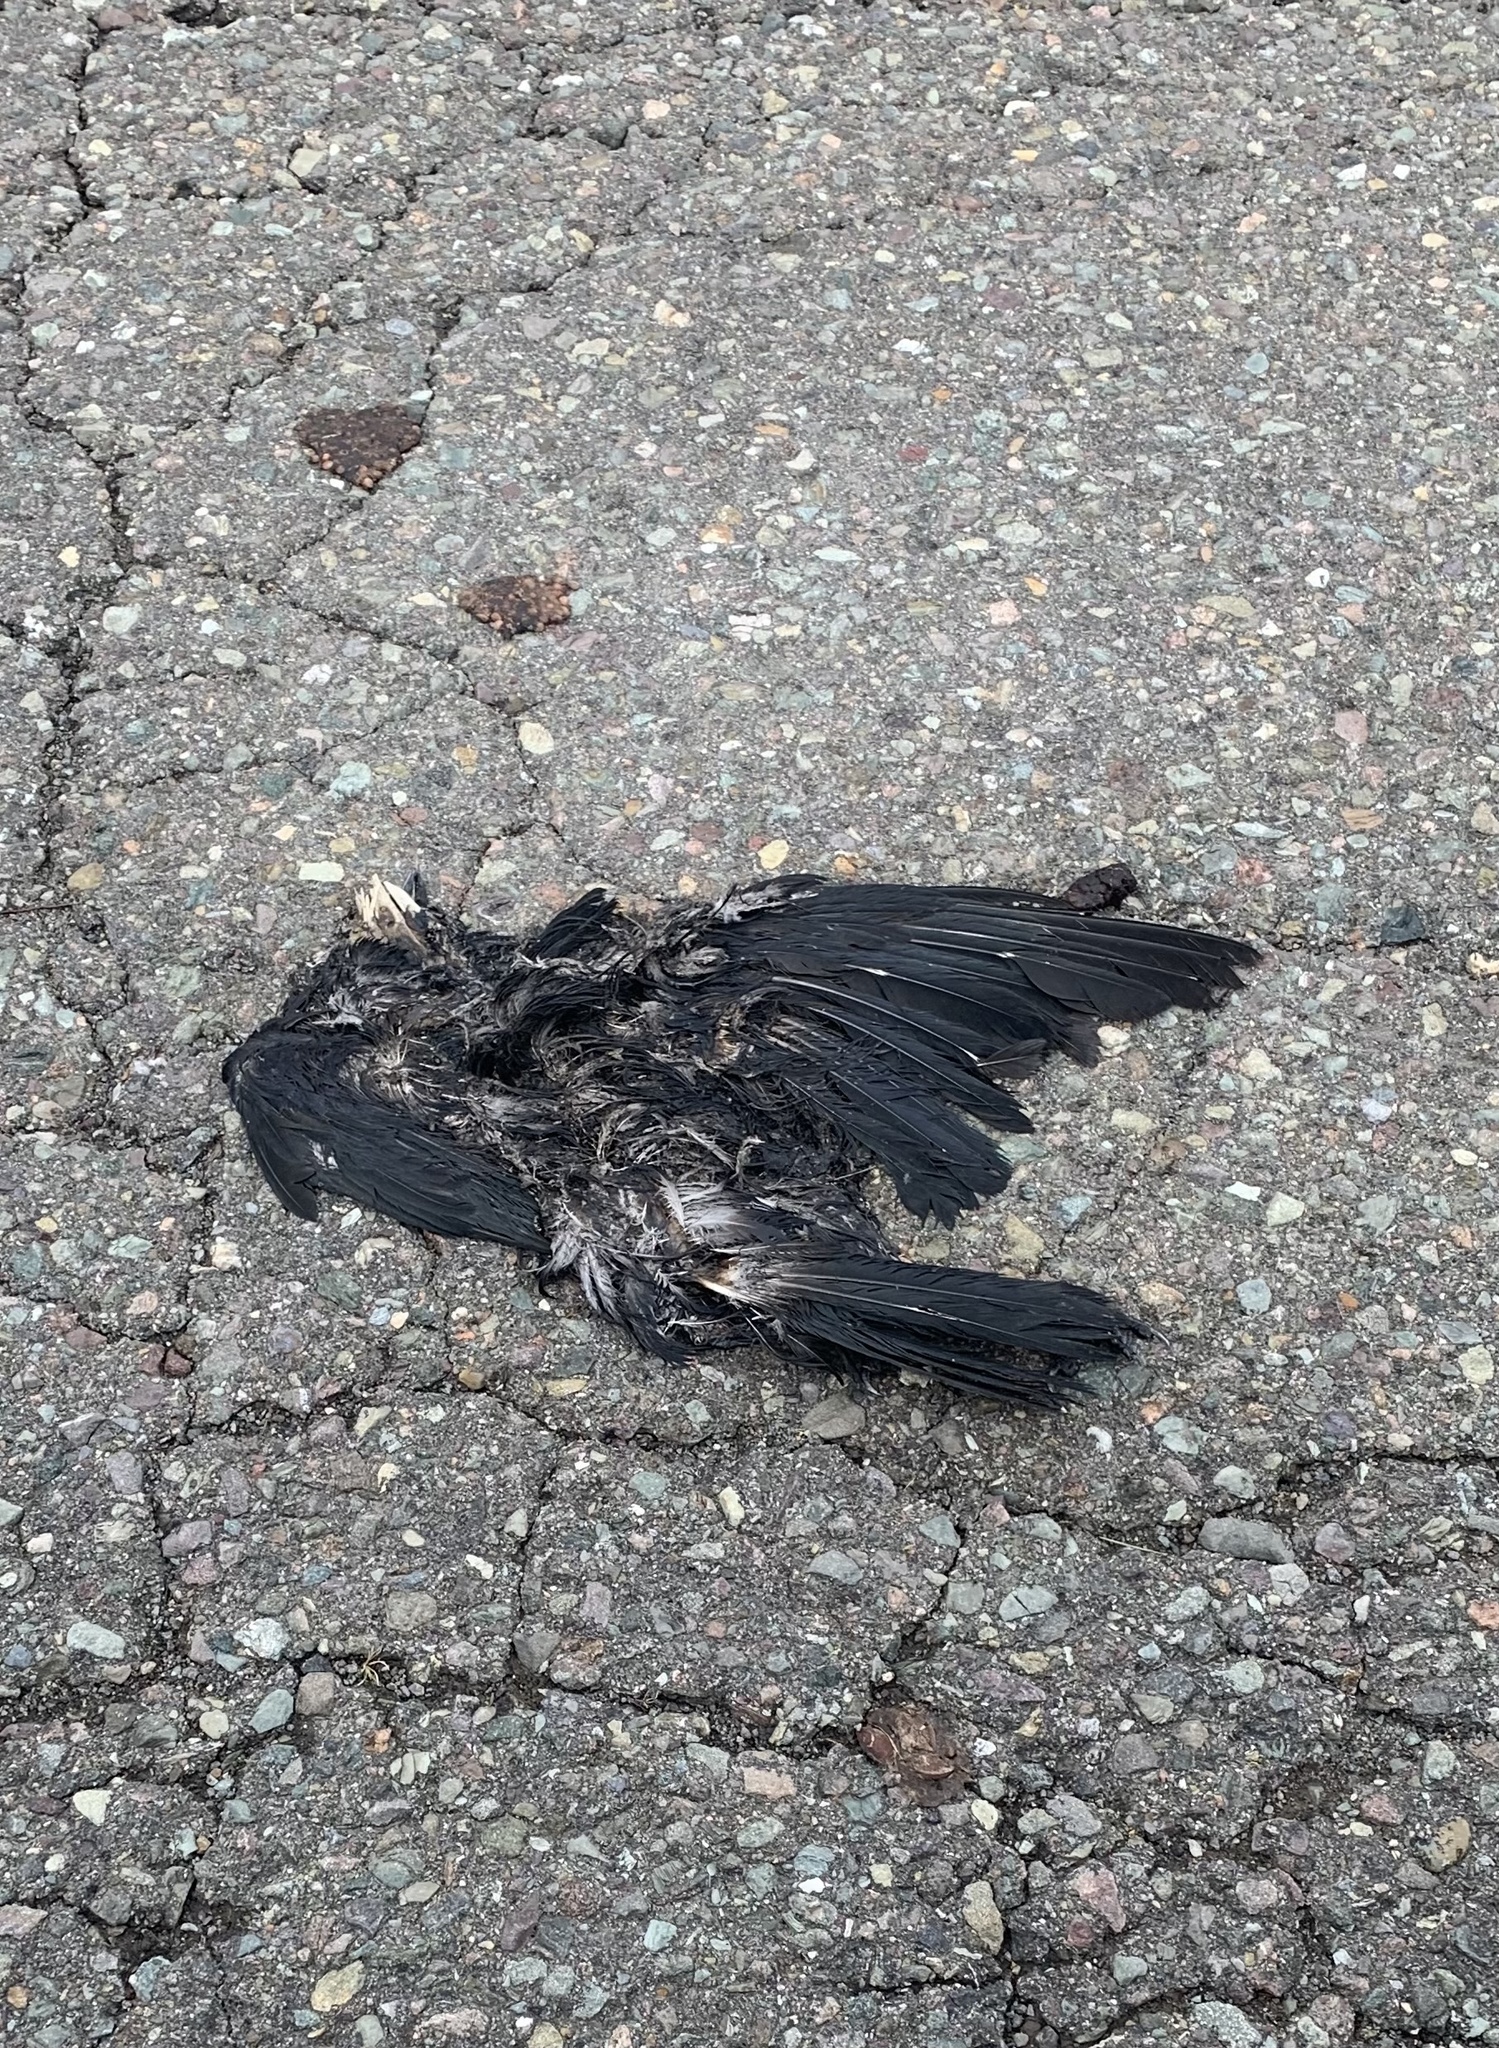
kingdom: Animalia
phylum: Chordata
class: Aves
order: Passeriformes
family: Corvidae
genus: Corvus
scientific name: Corvus brachyrhynchos
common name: American crow
